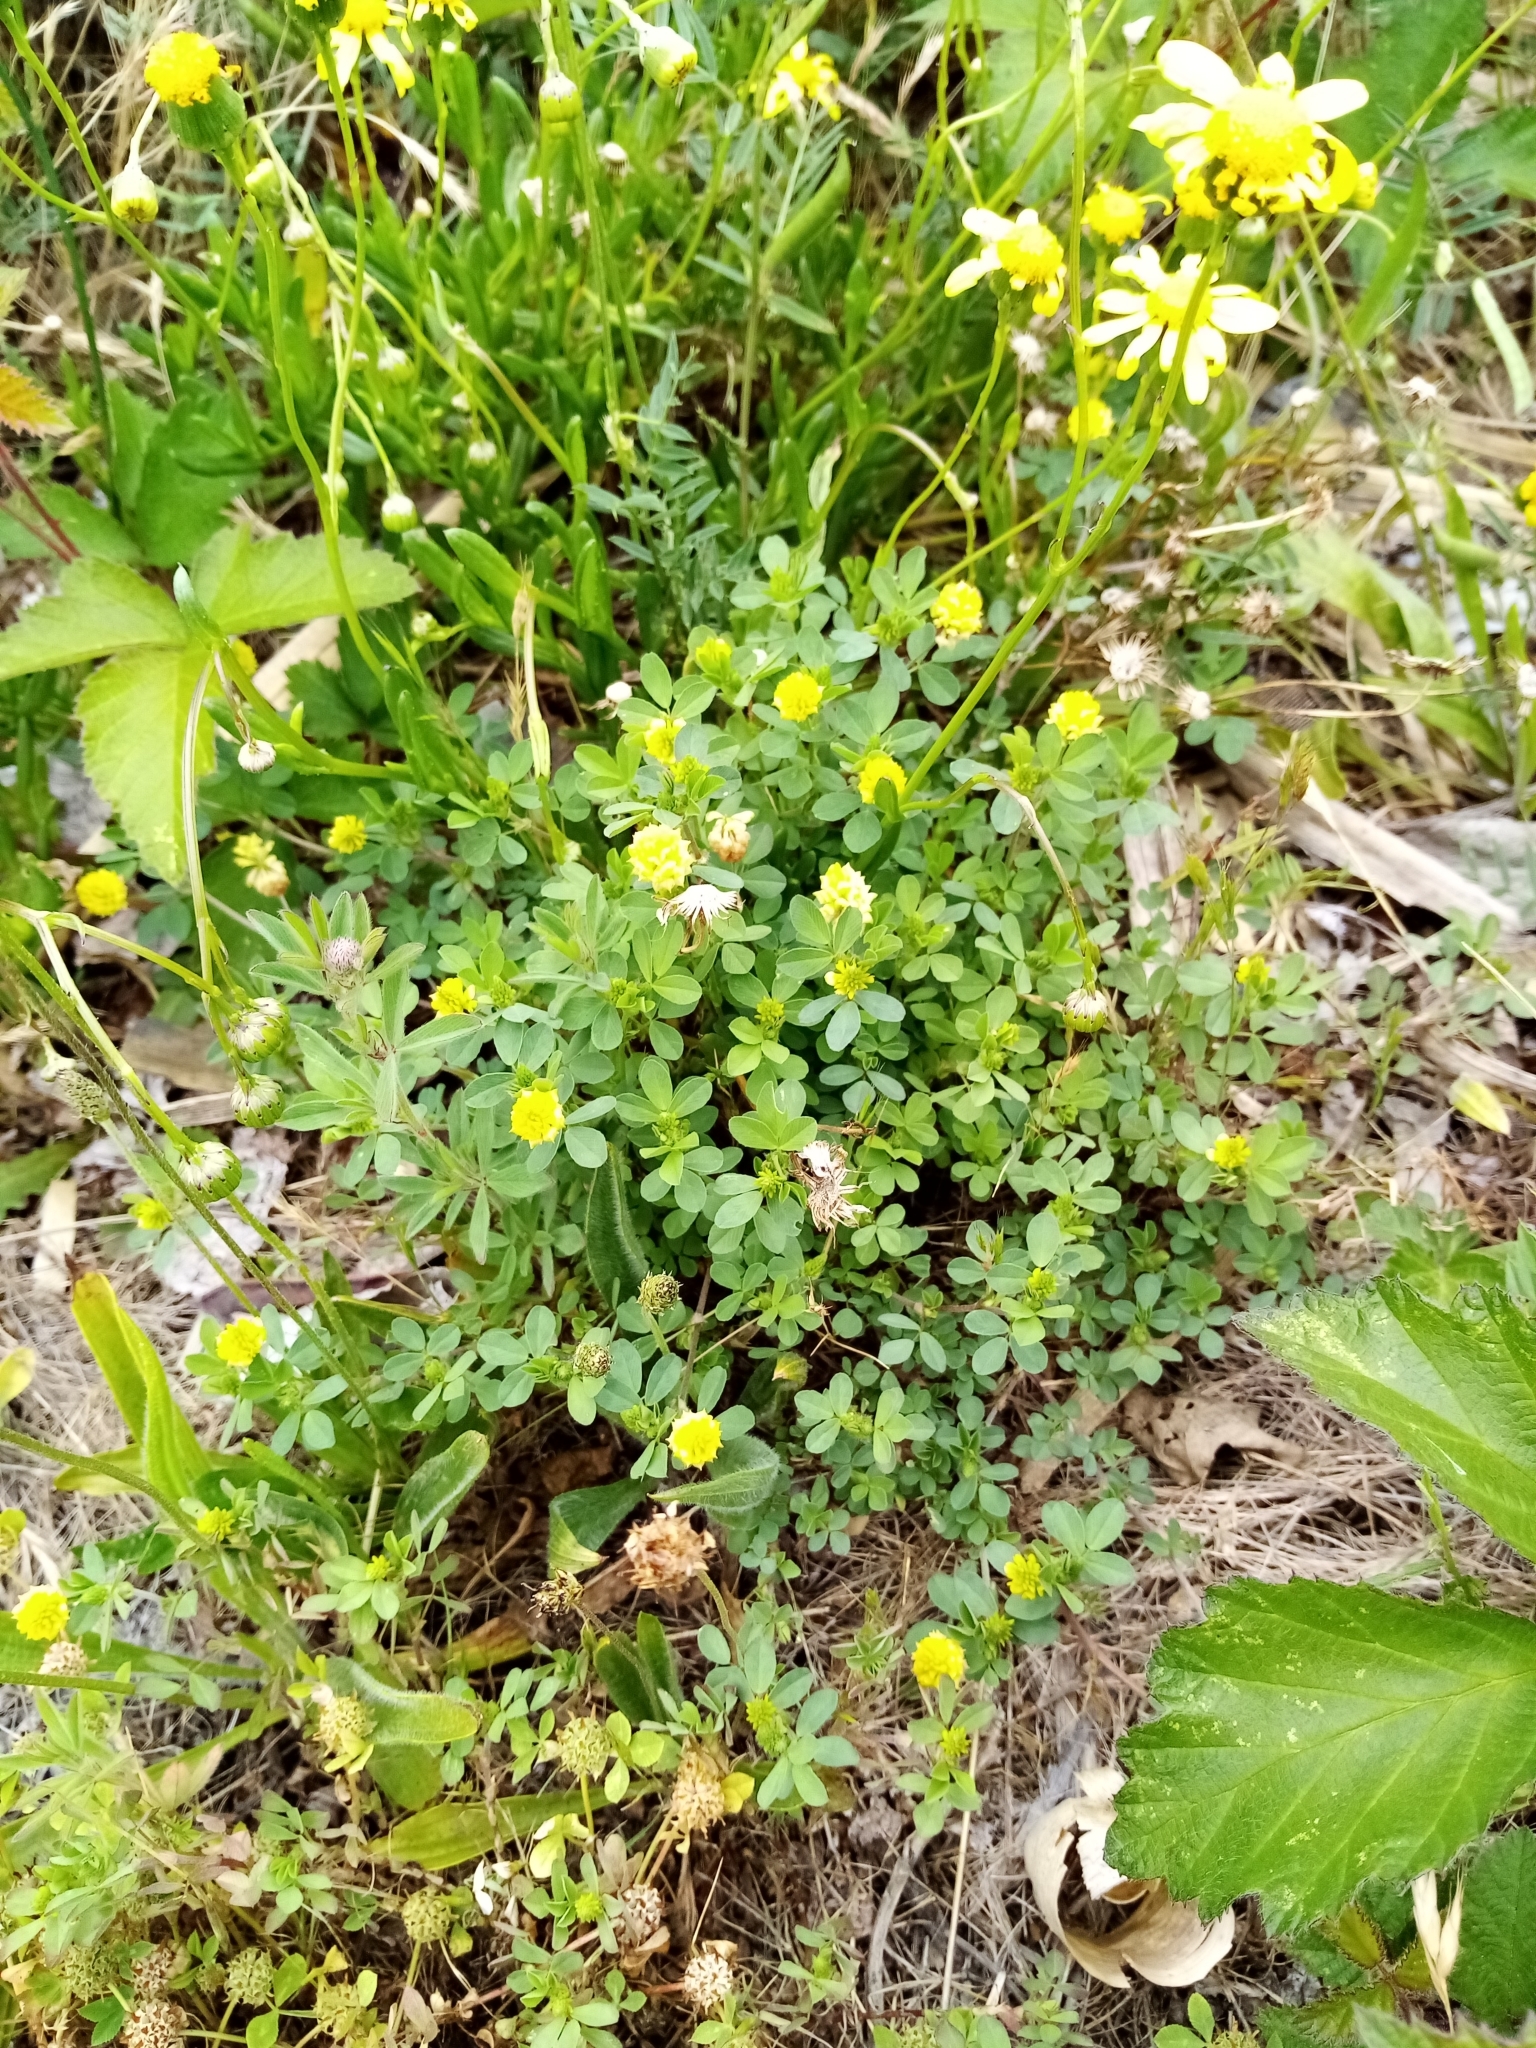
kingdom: Plantae
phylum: Tracheophyta
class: Magnoliopsida
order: Fabales
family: Fabaceae
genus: Trifolium
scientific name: Trifolium campestre
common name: Field clover
